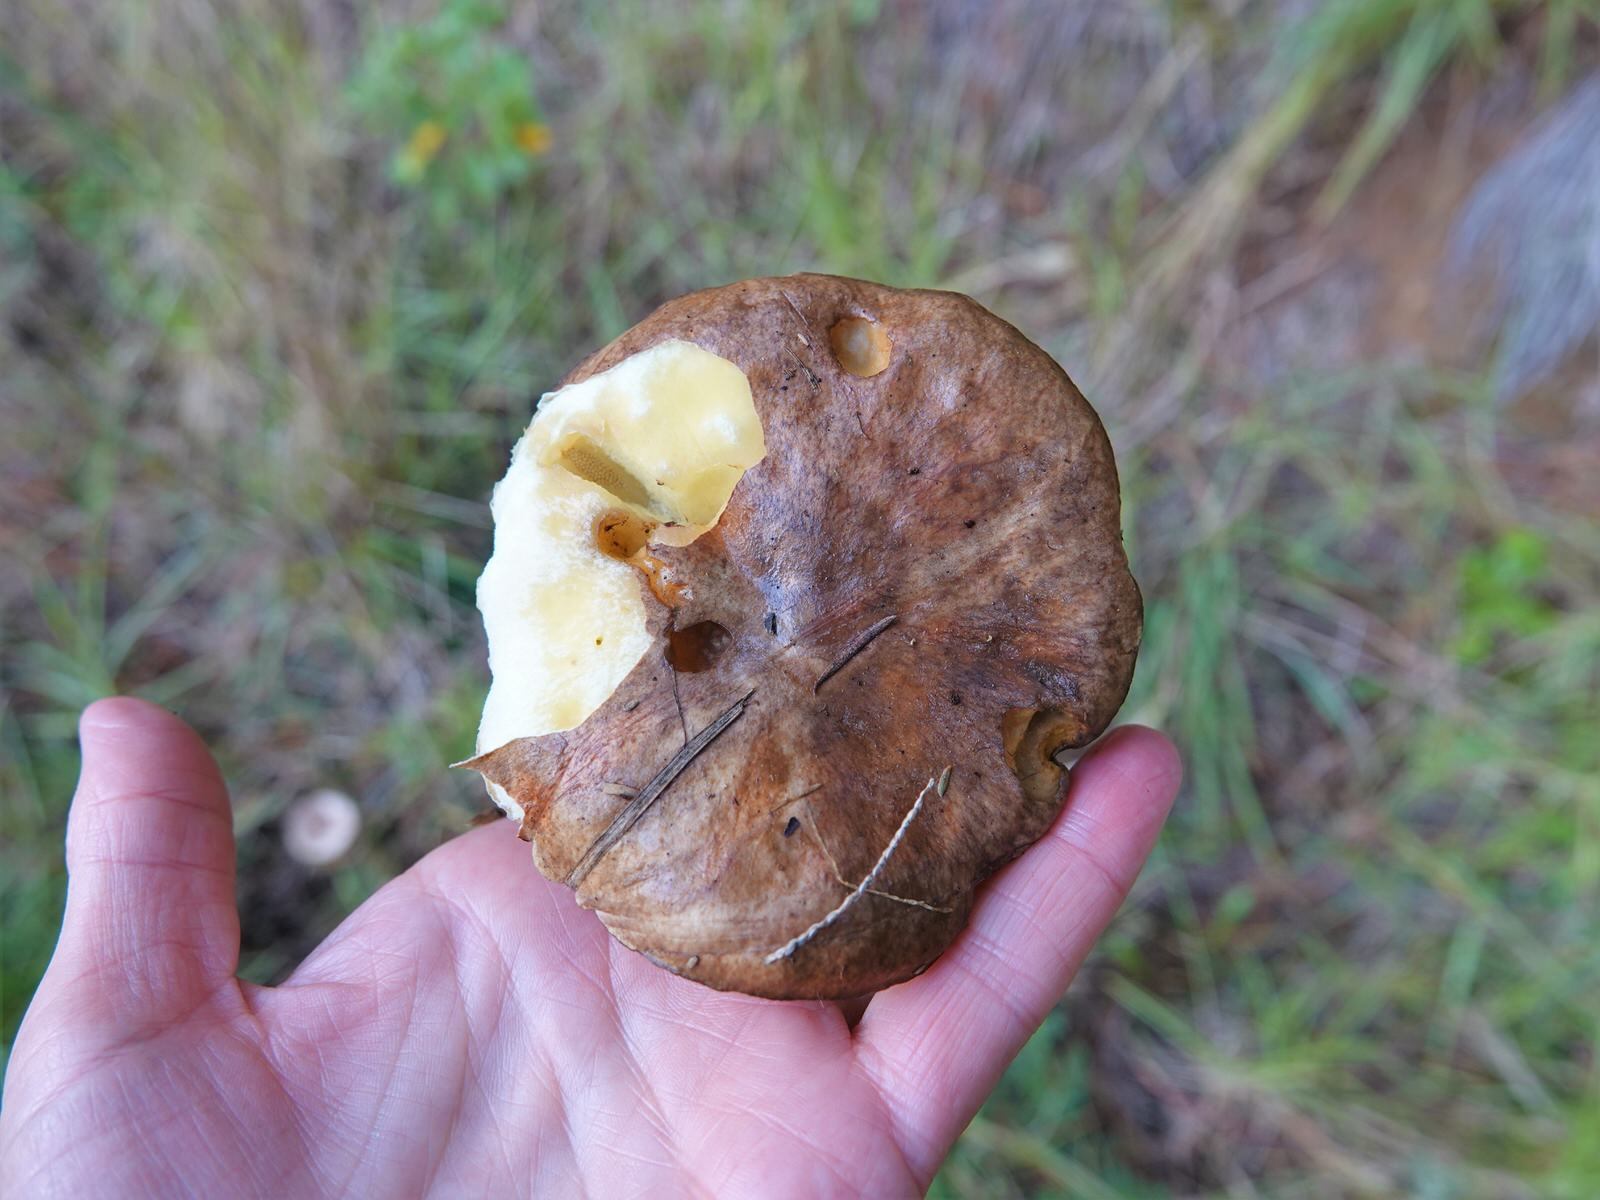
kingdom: Fungi
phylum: Basidiomycota
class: Agaricomycetes
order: Boletales
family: Suillaceae
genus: Suillus
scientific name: Suillus luteus
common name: Slippery jack
